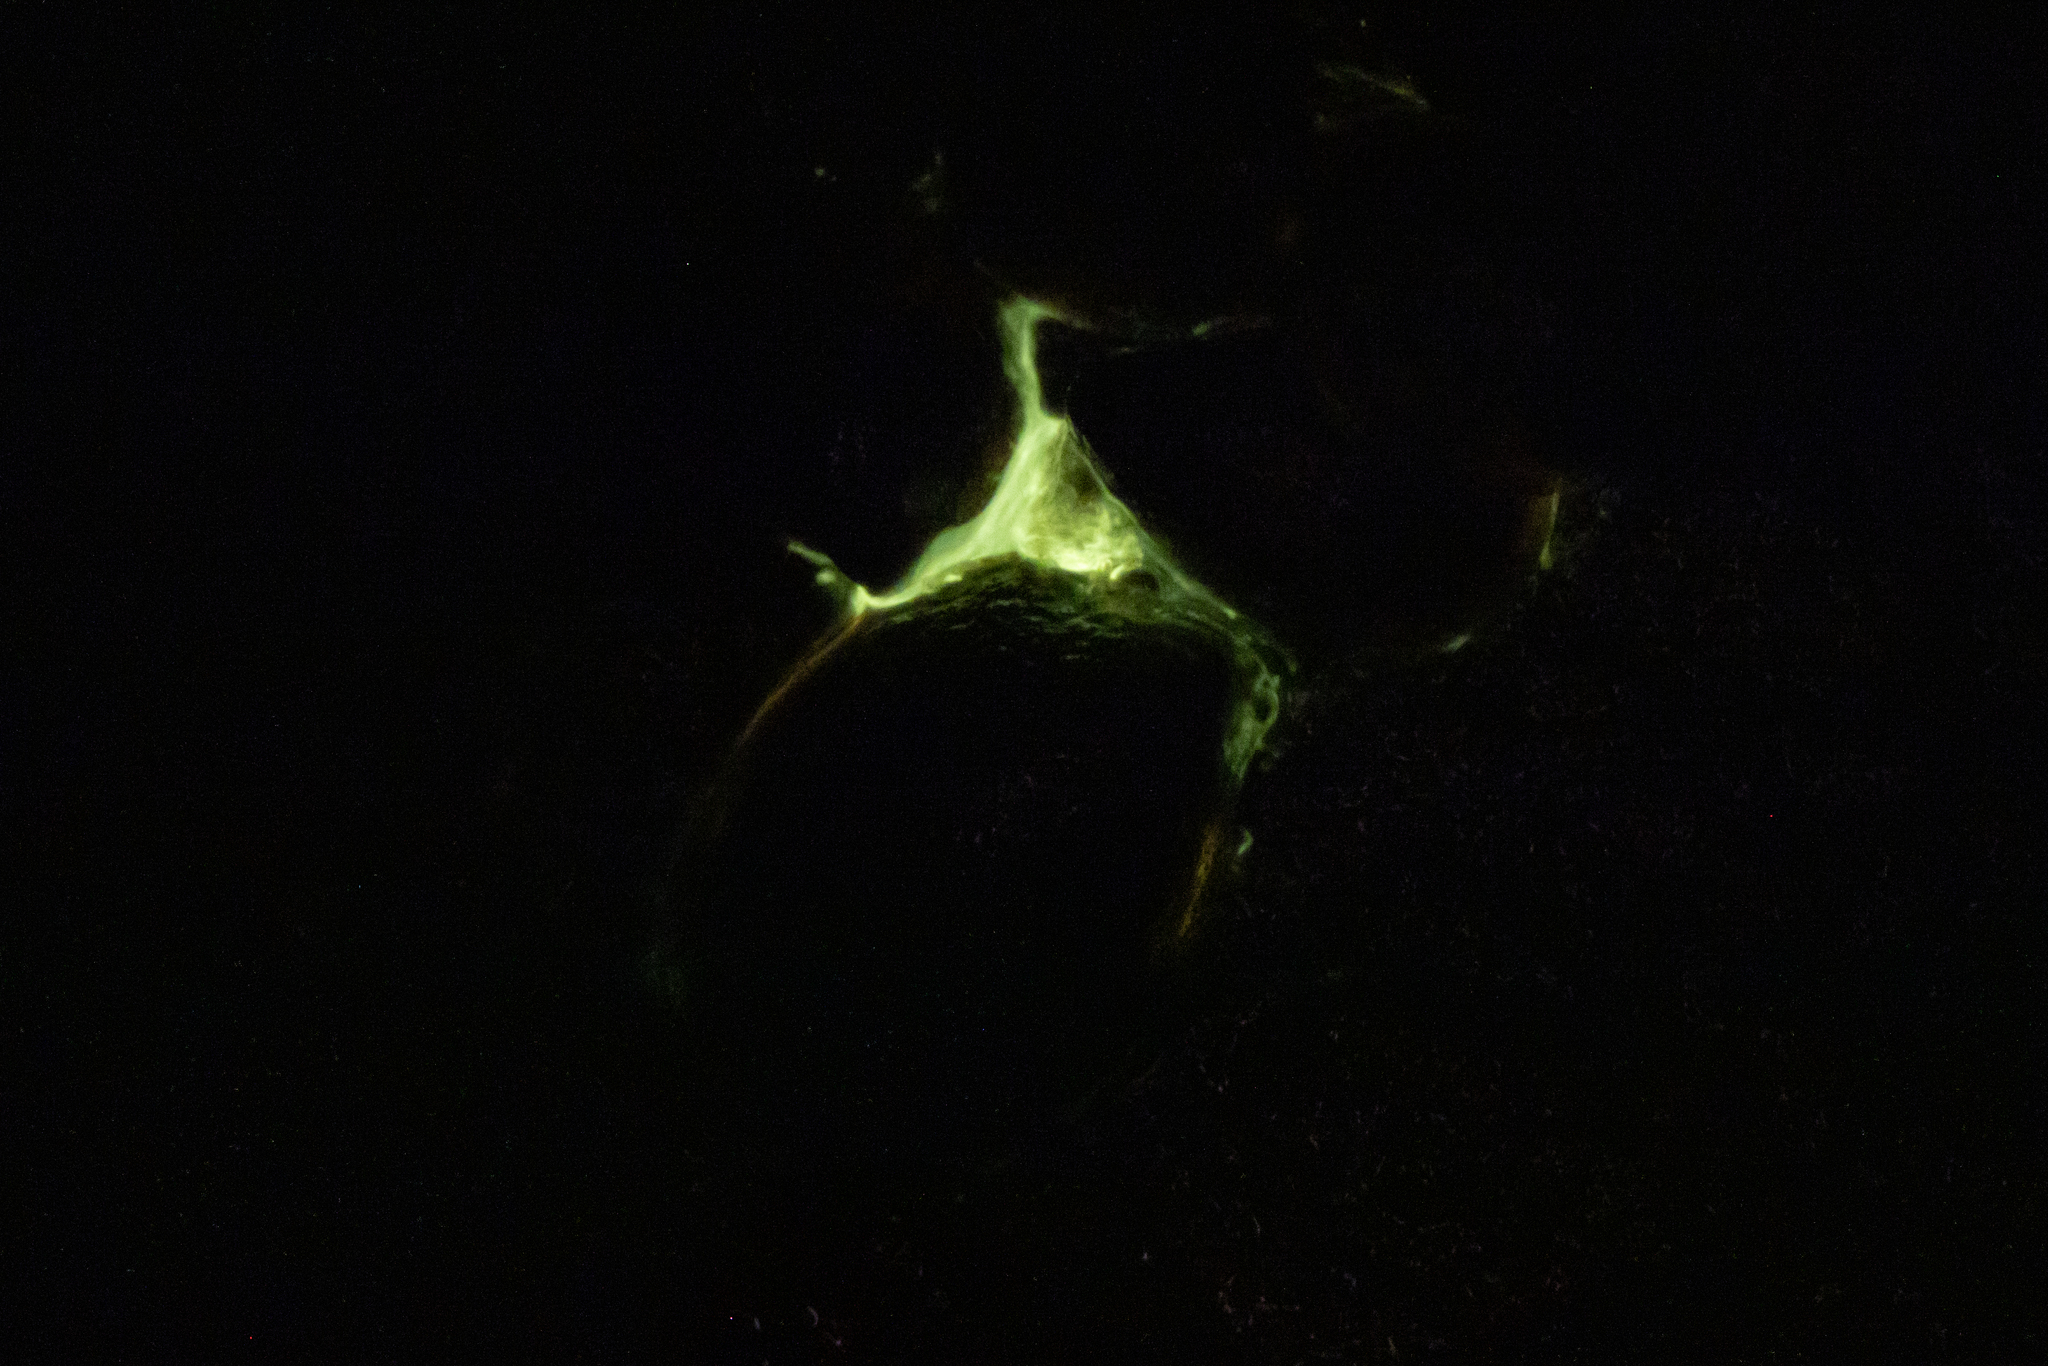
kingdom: Animalia
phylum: Mollusca
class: Gastropoda
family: Latiidae
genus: Latia
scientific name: Latia neritoides
